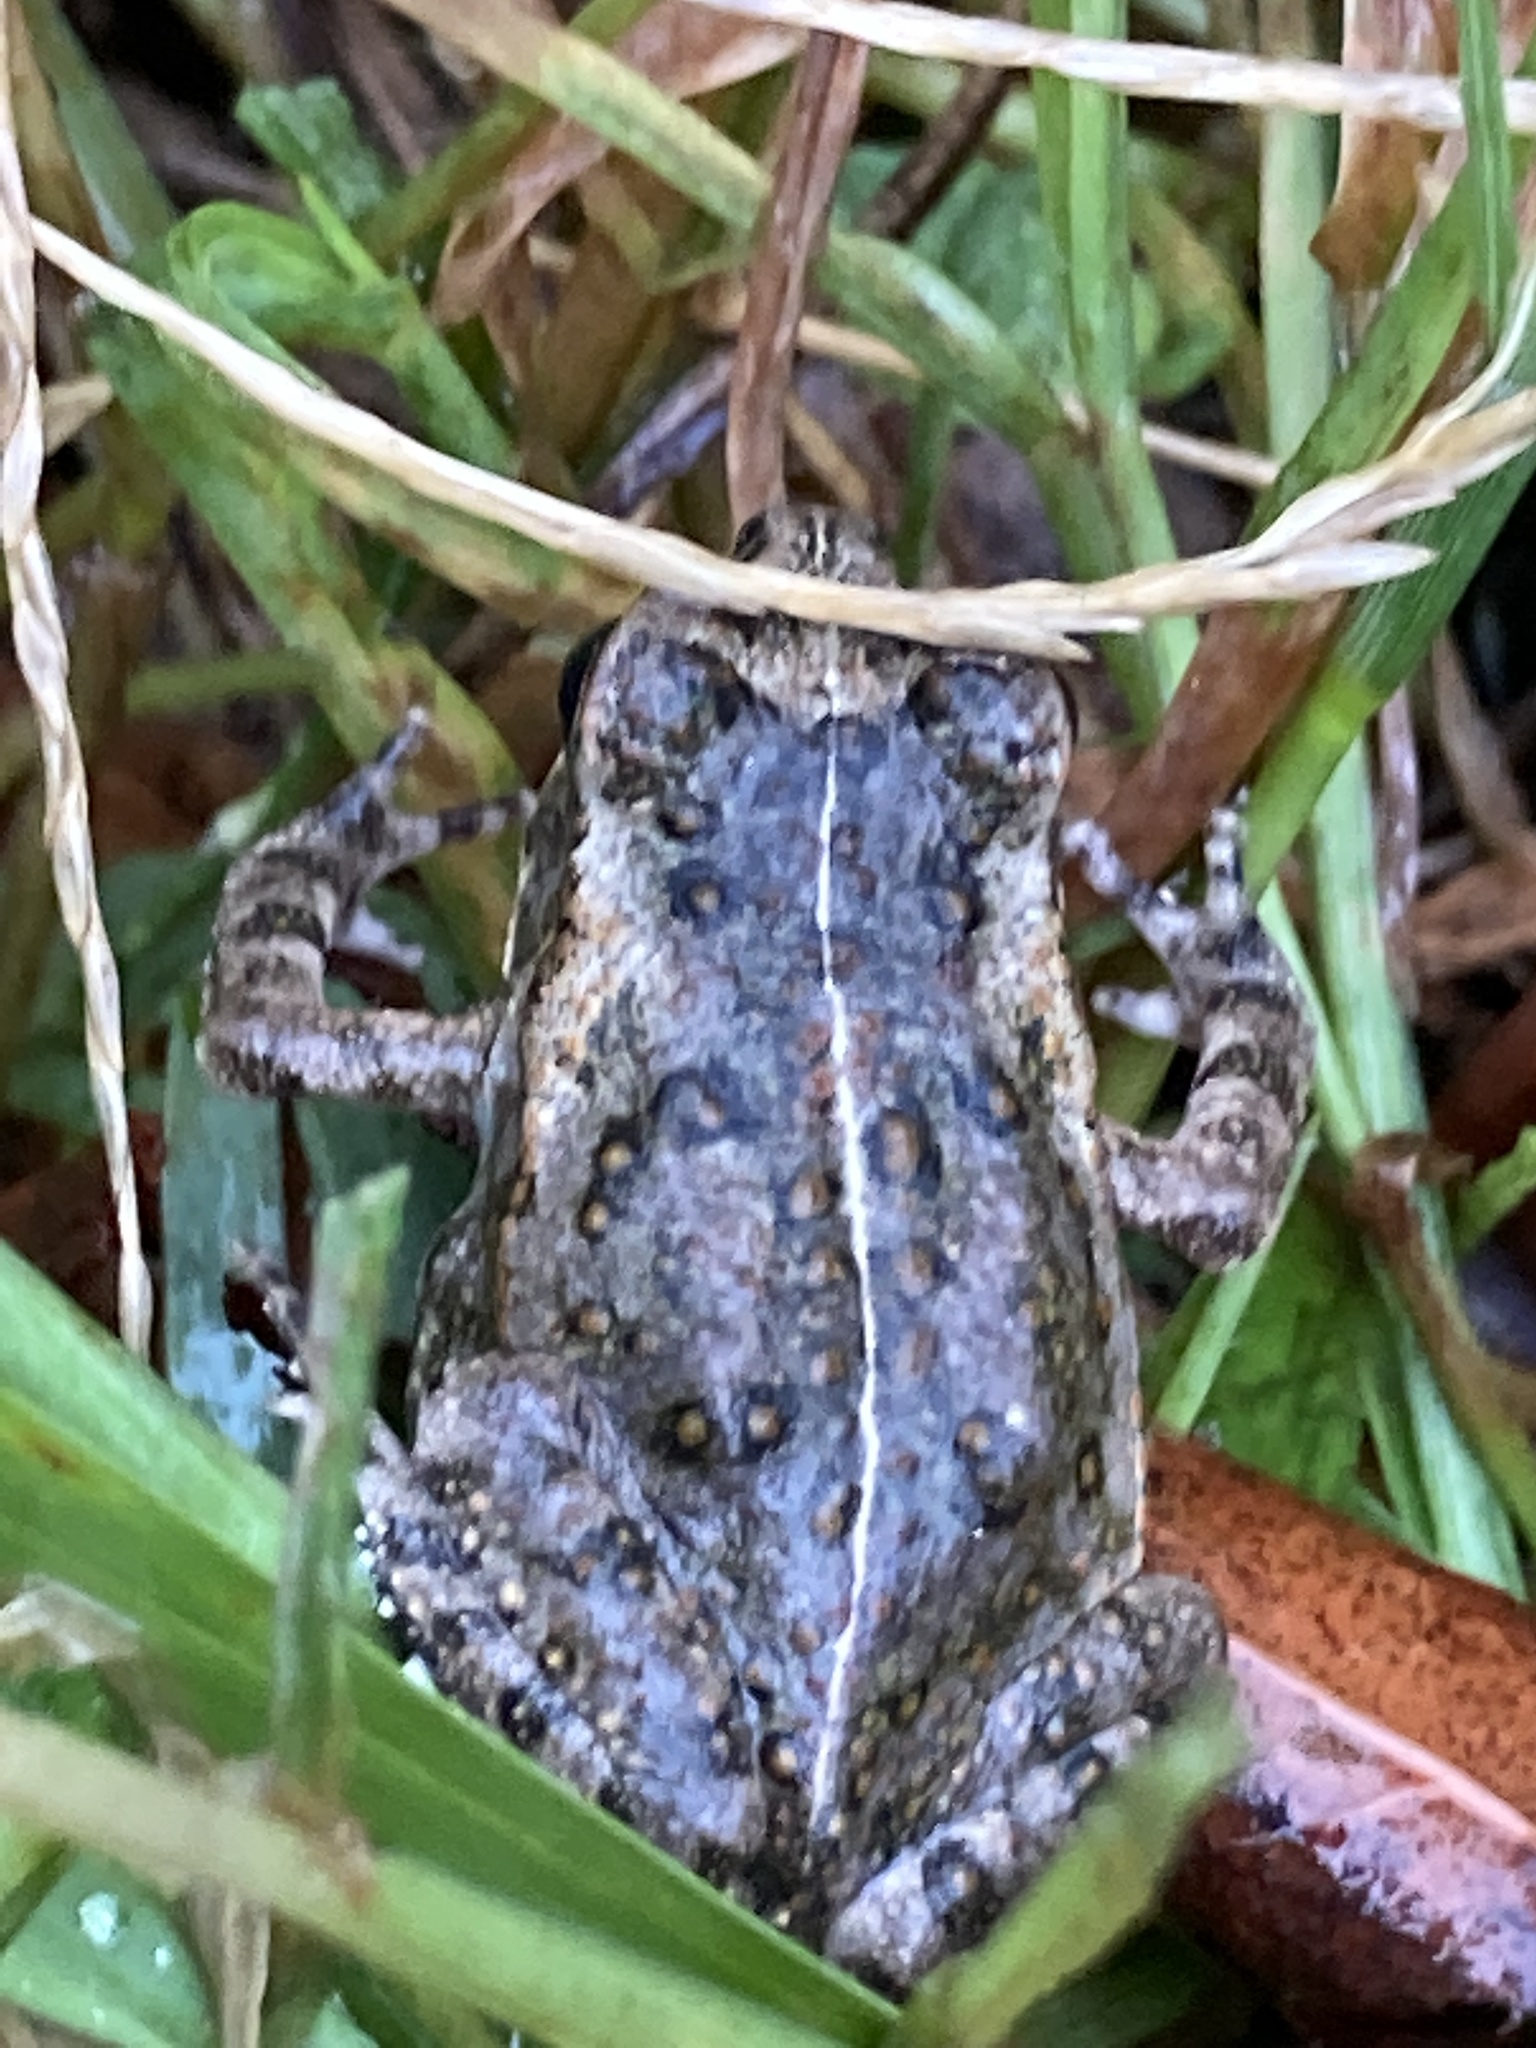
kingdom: Animalia
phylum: Chordata
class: Amphibia
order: Anura
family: Bufonidae
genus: Rhinella
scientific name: Rhinella marina
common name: Cane toad
